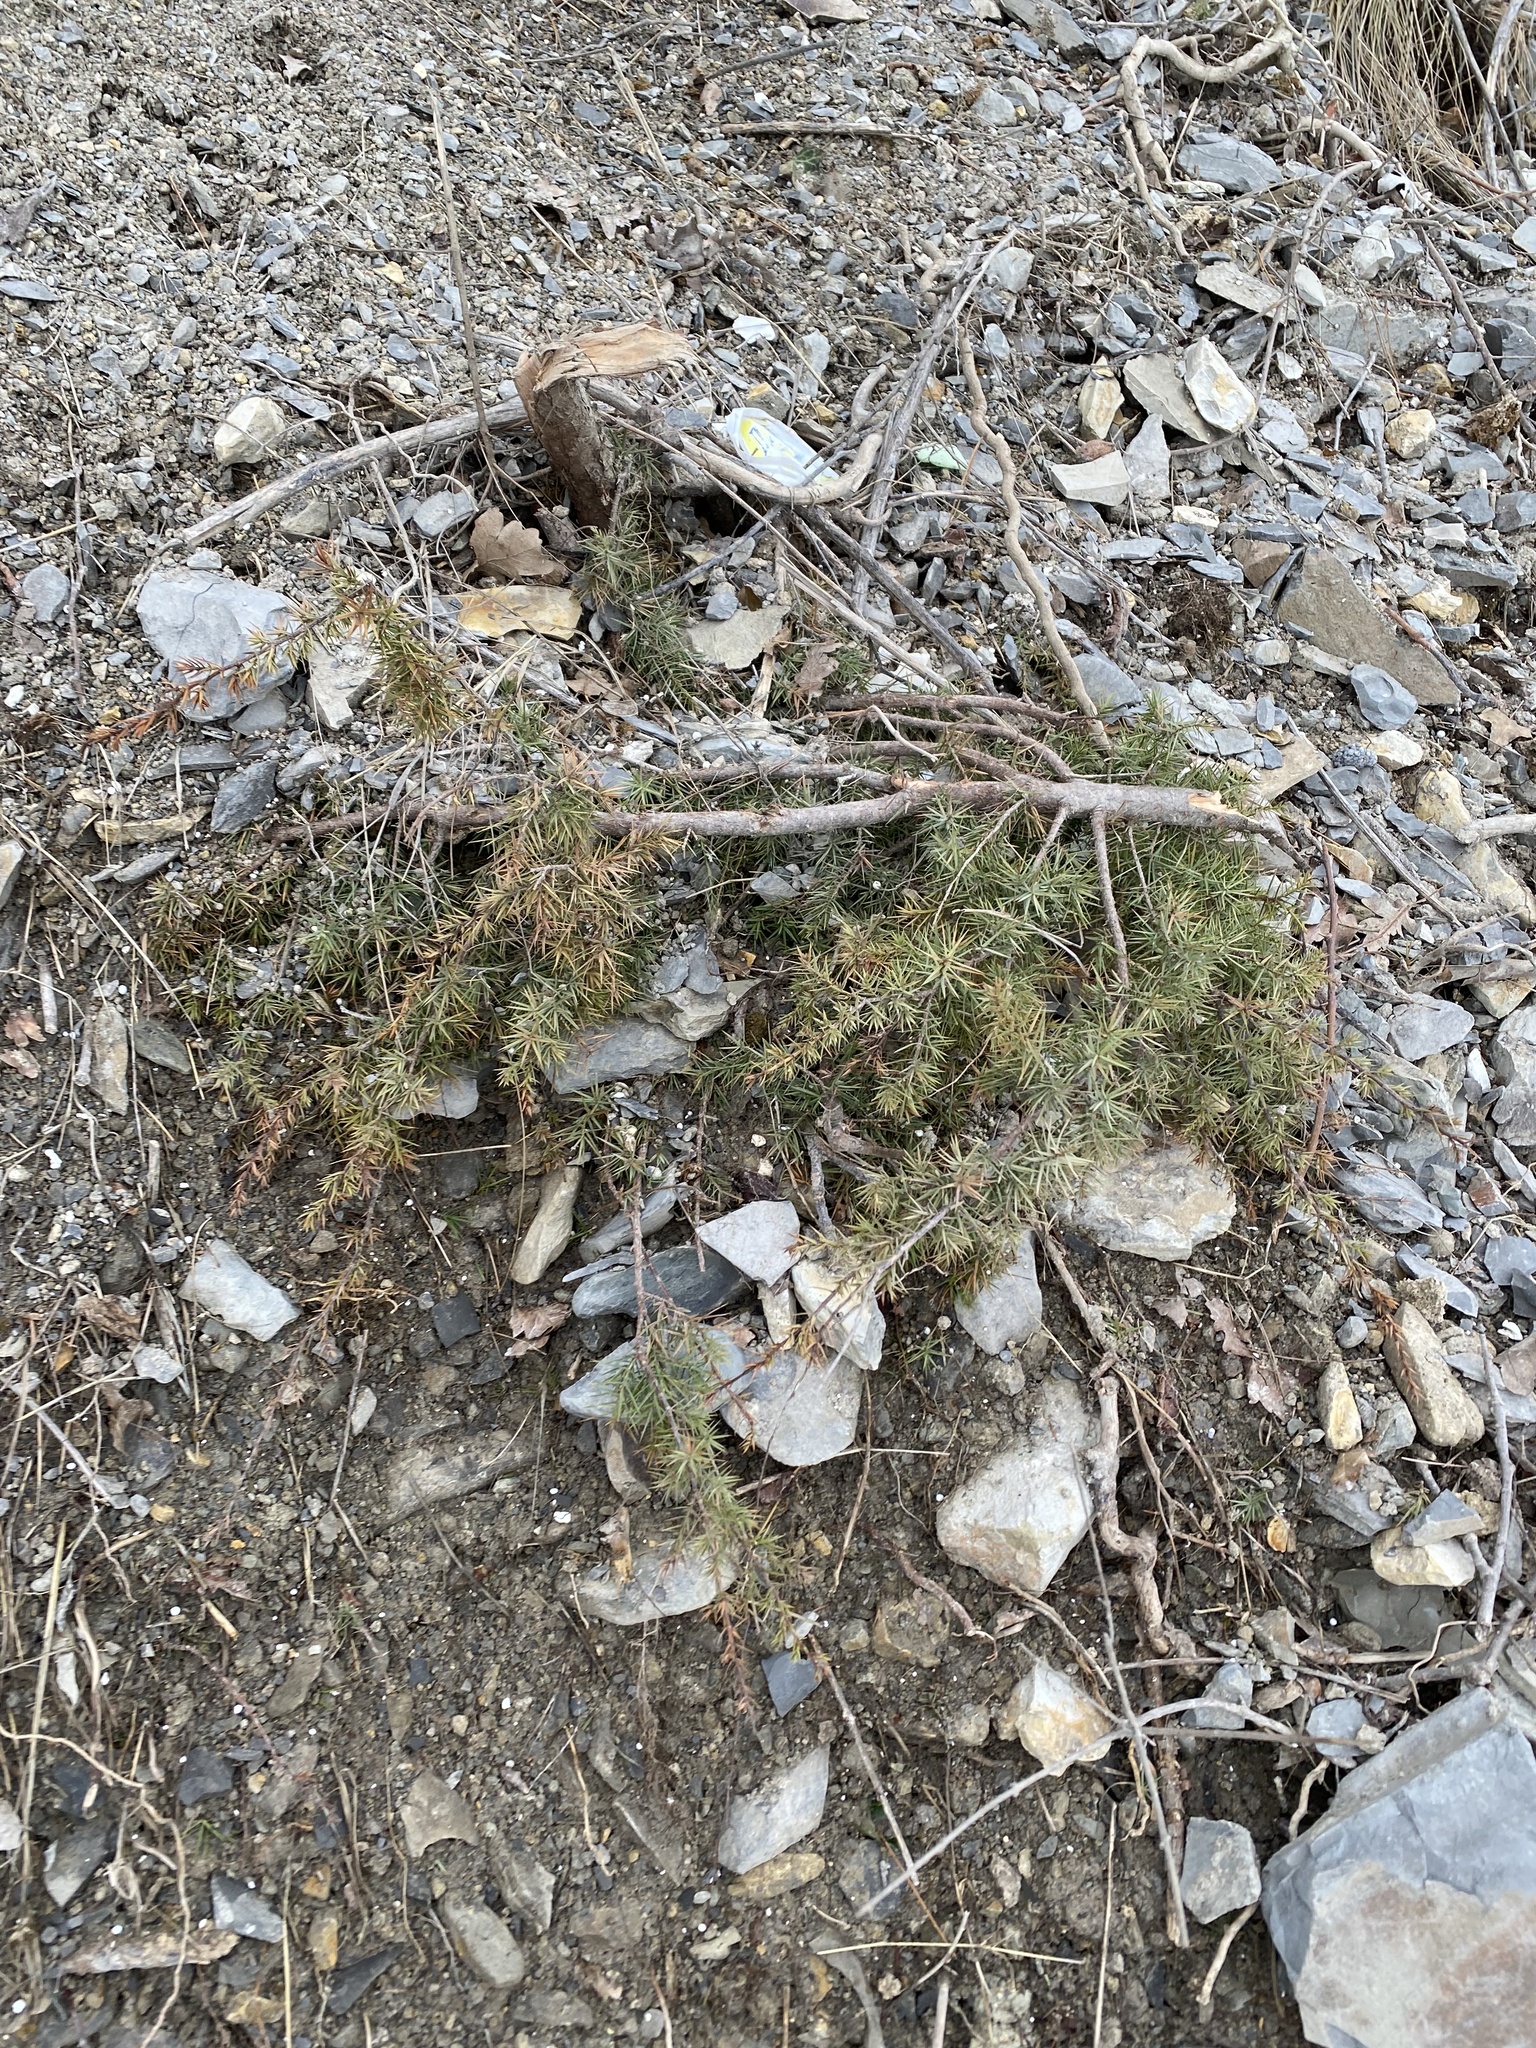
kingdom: Plantae
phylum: Tracheophyta
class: Pinopsida
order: Pinales
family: Cupressaceae
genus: Juniperus
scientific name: Juniperus oxycedrus
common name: Prickly juniper
